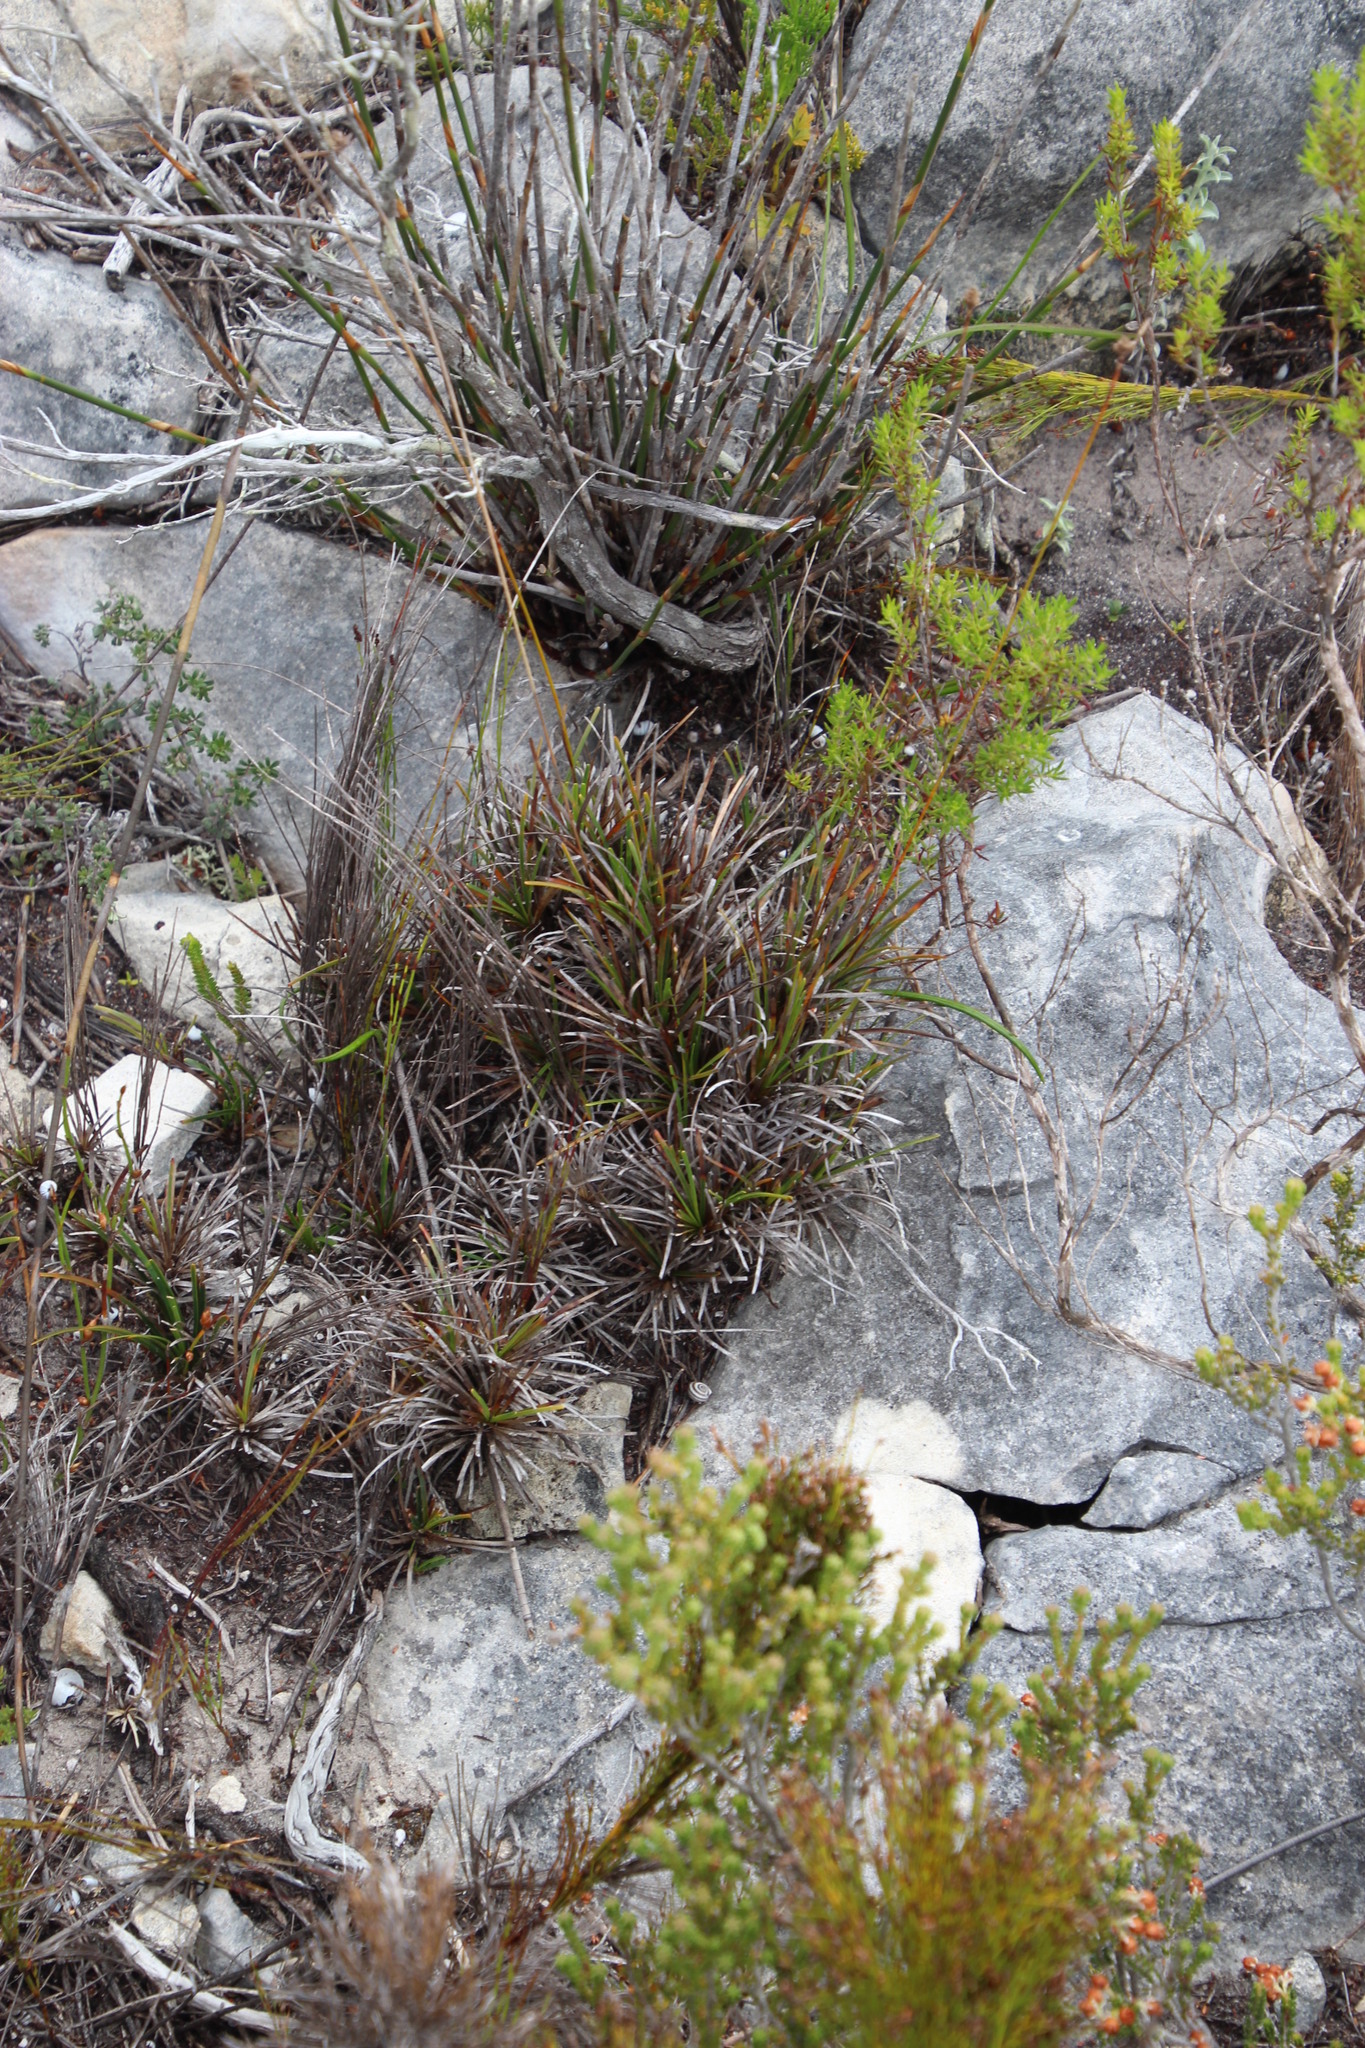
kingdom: Plantae
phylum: Tracheophyta
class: Liliopsida
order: Poales
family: Cyperaceae
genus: Ficinia
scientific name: Ficinia praemorsa
